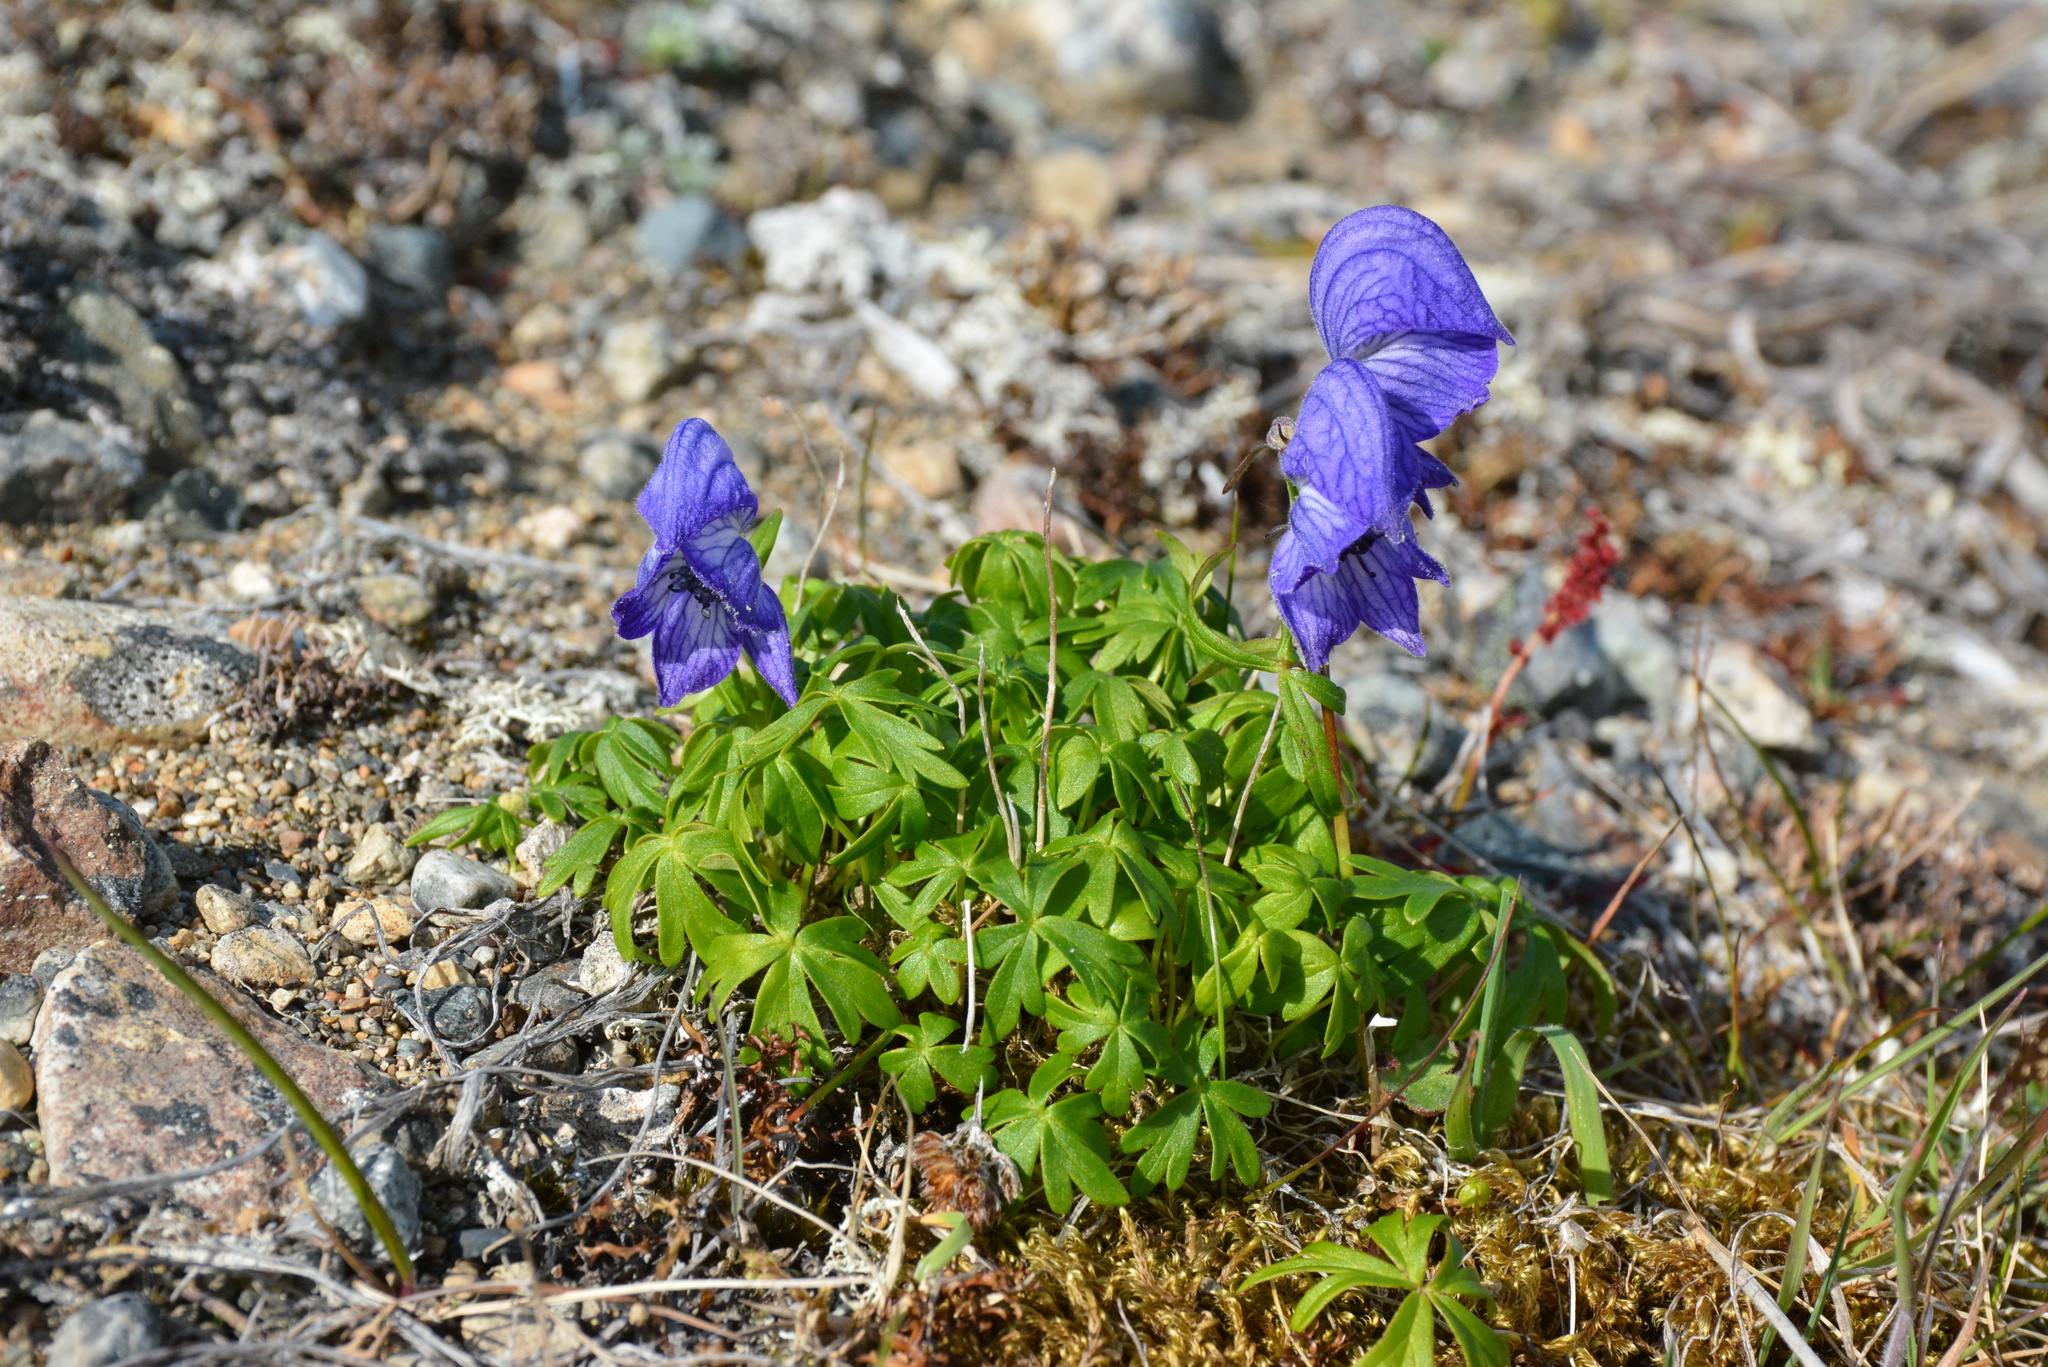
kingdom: Plantae
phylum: Tracheophyta
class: Magnoliopsida
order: Ranunculales
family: Ranunculaceae
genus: Aconitum
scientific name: Aconitum delphinifolium
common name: Larkspur-leaved monkshood
